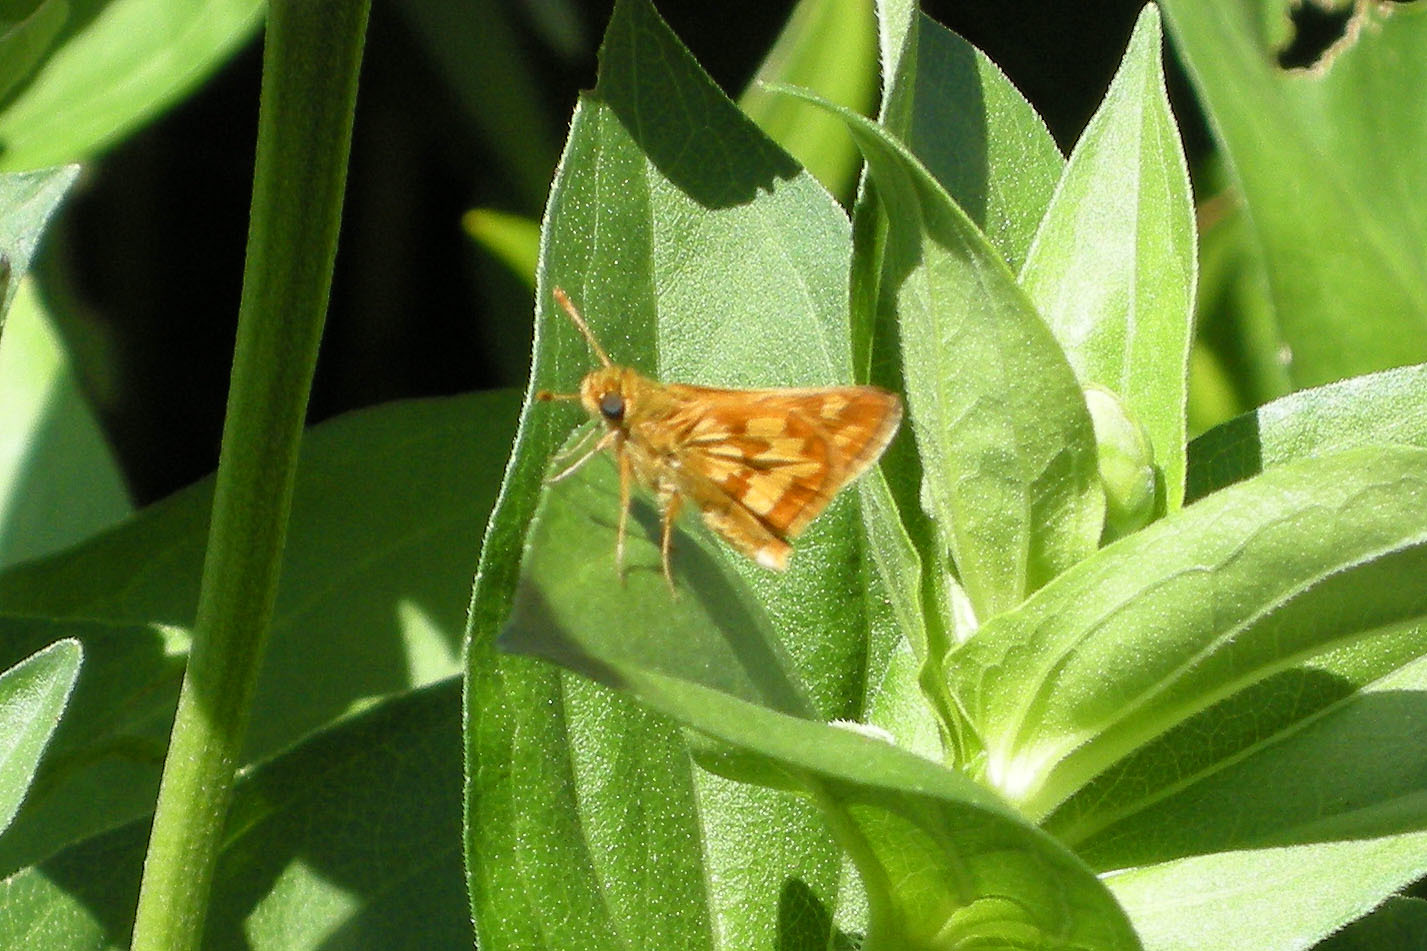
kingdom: Animalia
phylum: Arthropoda
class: Insecta
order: Lepidoptera
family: Hesperiidae
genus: Polites
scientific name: Polites coras
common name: Peck's skipper
